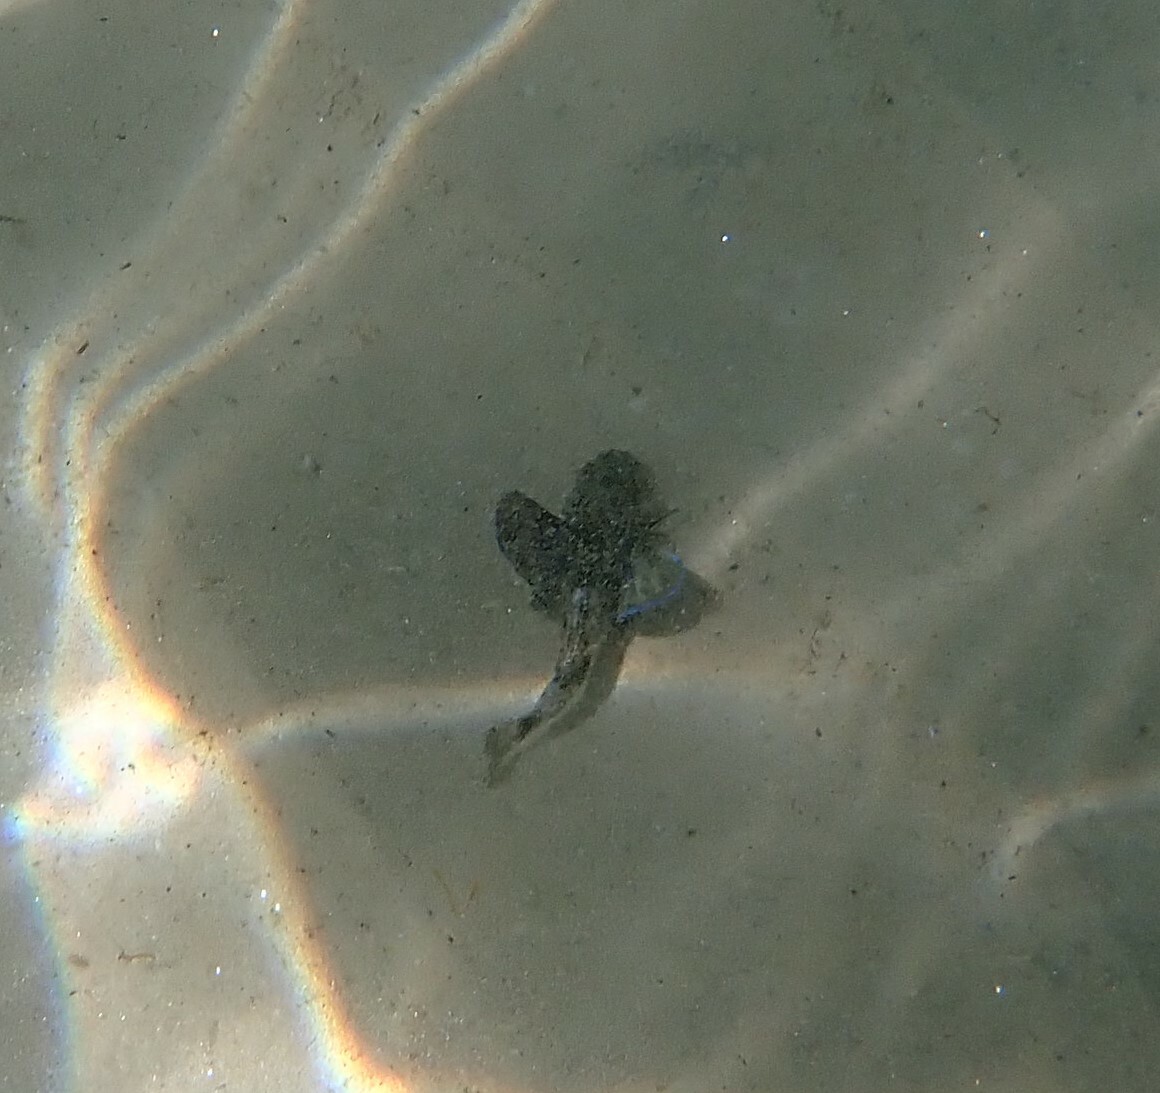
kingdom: Animalia
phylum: Chordata
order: Scorpaeniformes
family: Triglidae
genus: Chelidonichthys
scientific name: Chelidonichthys lucerna
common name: Tub gurnard
